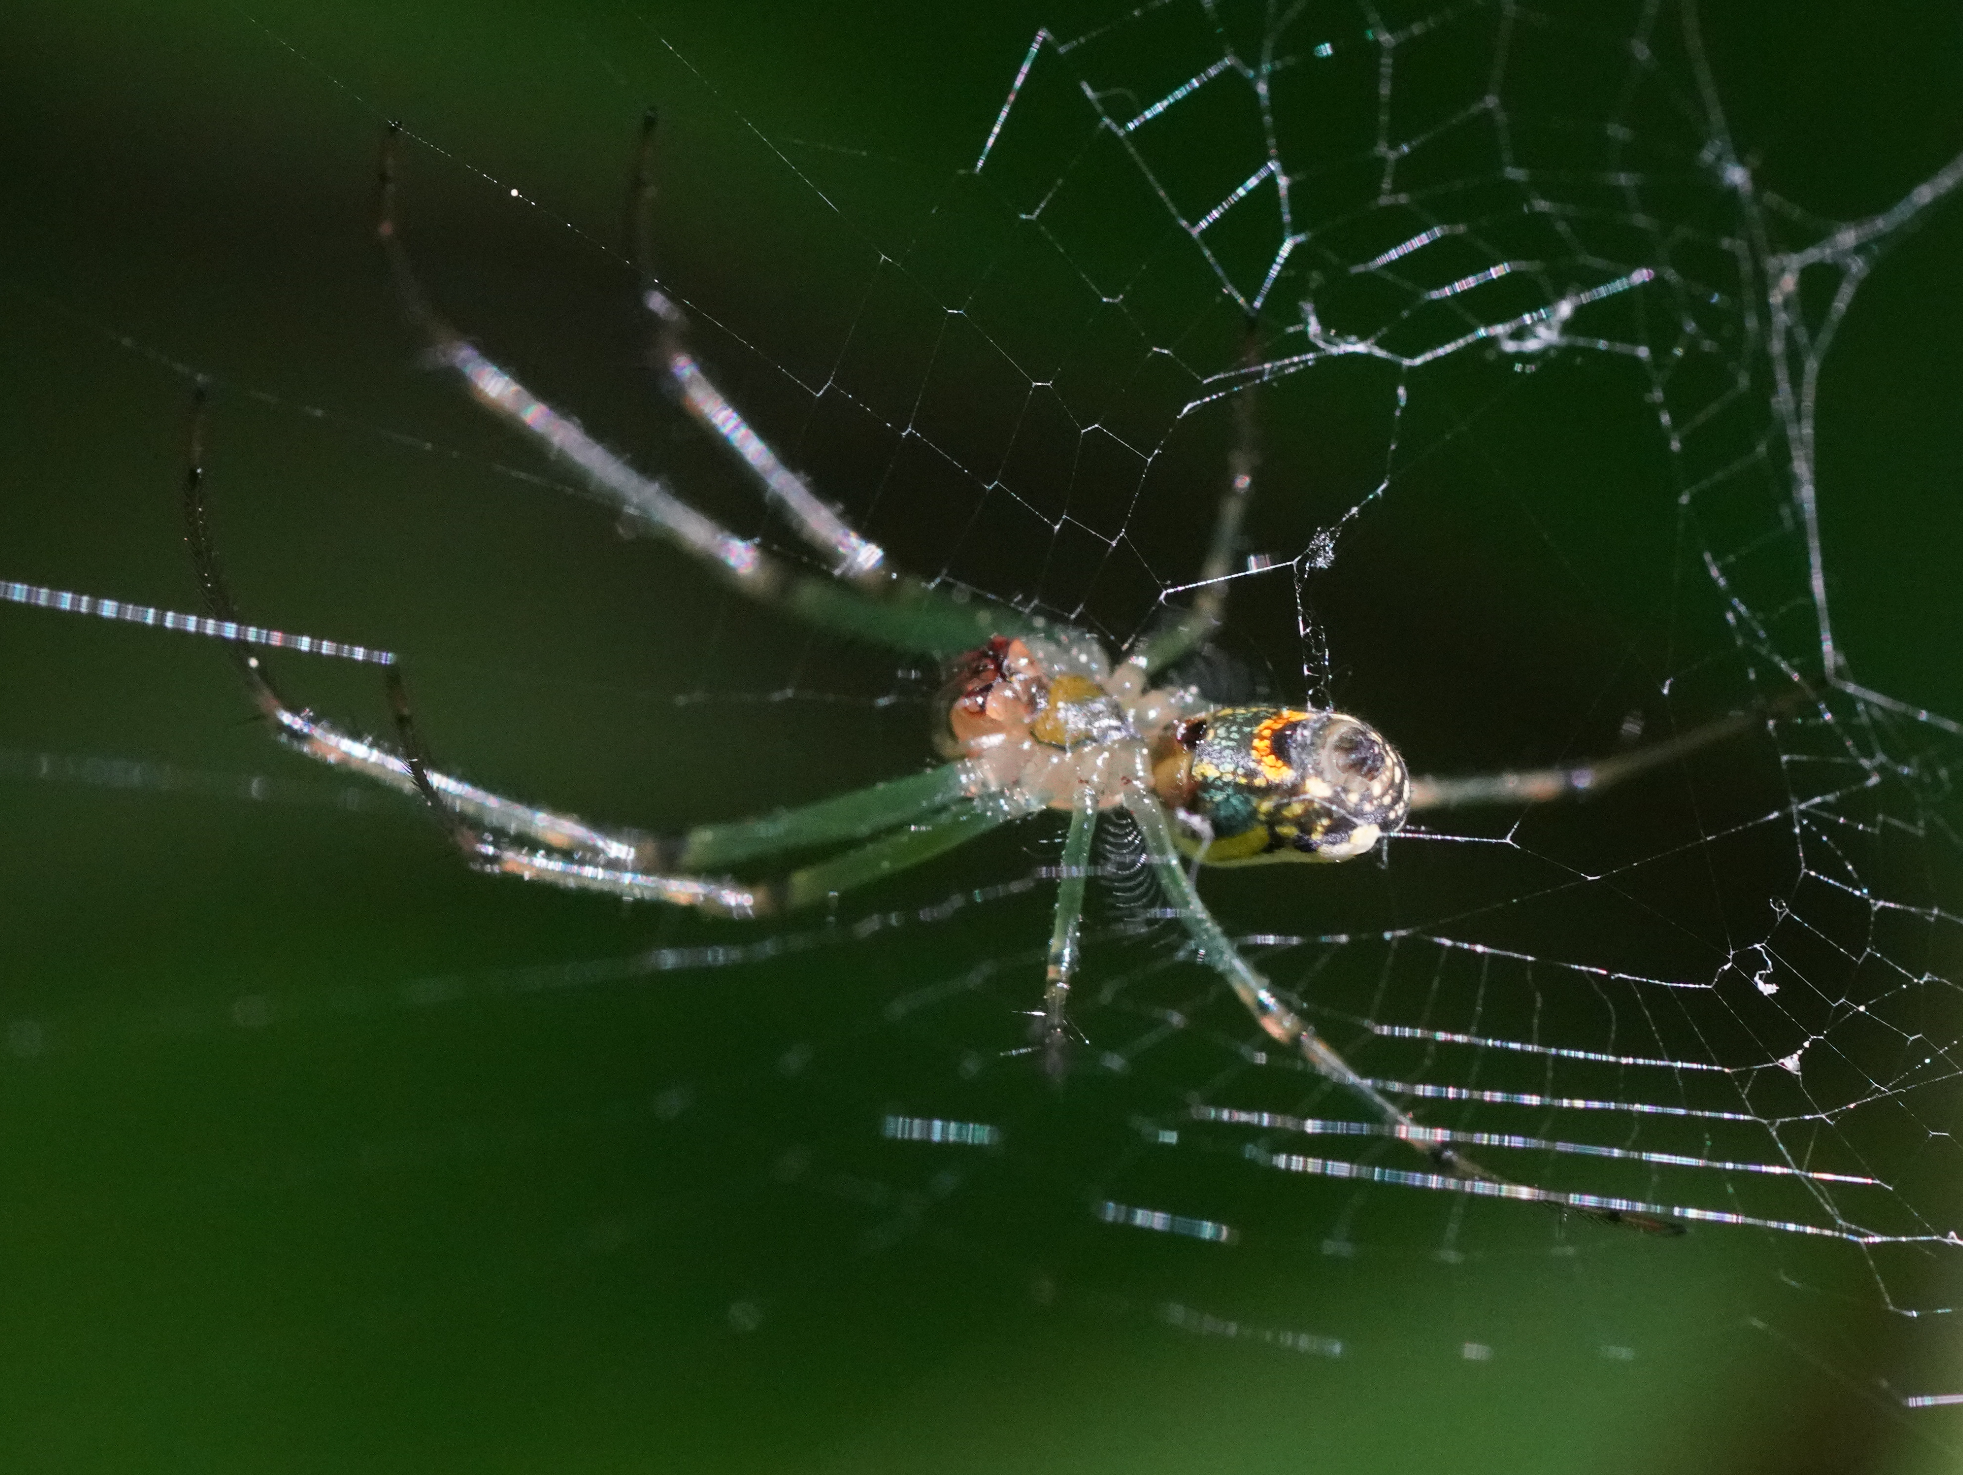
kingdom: Animalia
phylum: Arthropoda
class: Arachnida
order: Araneae
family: Tetragnathidae
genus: Leucauge
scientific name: Leucauge venusta
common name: Longjawed orb weavers
